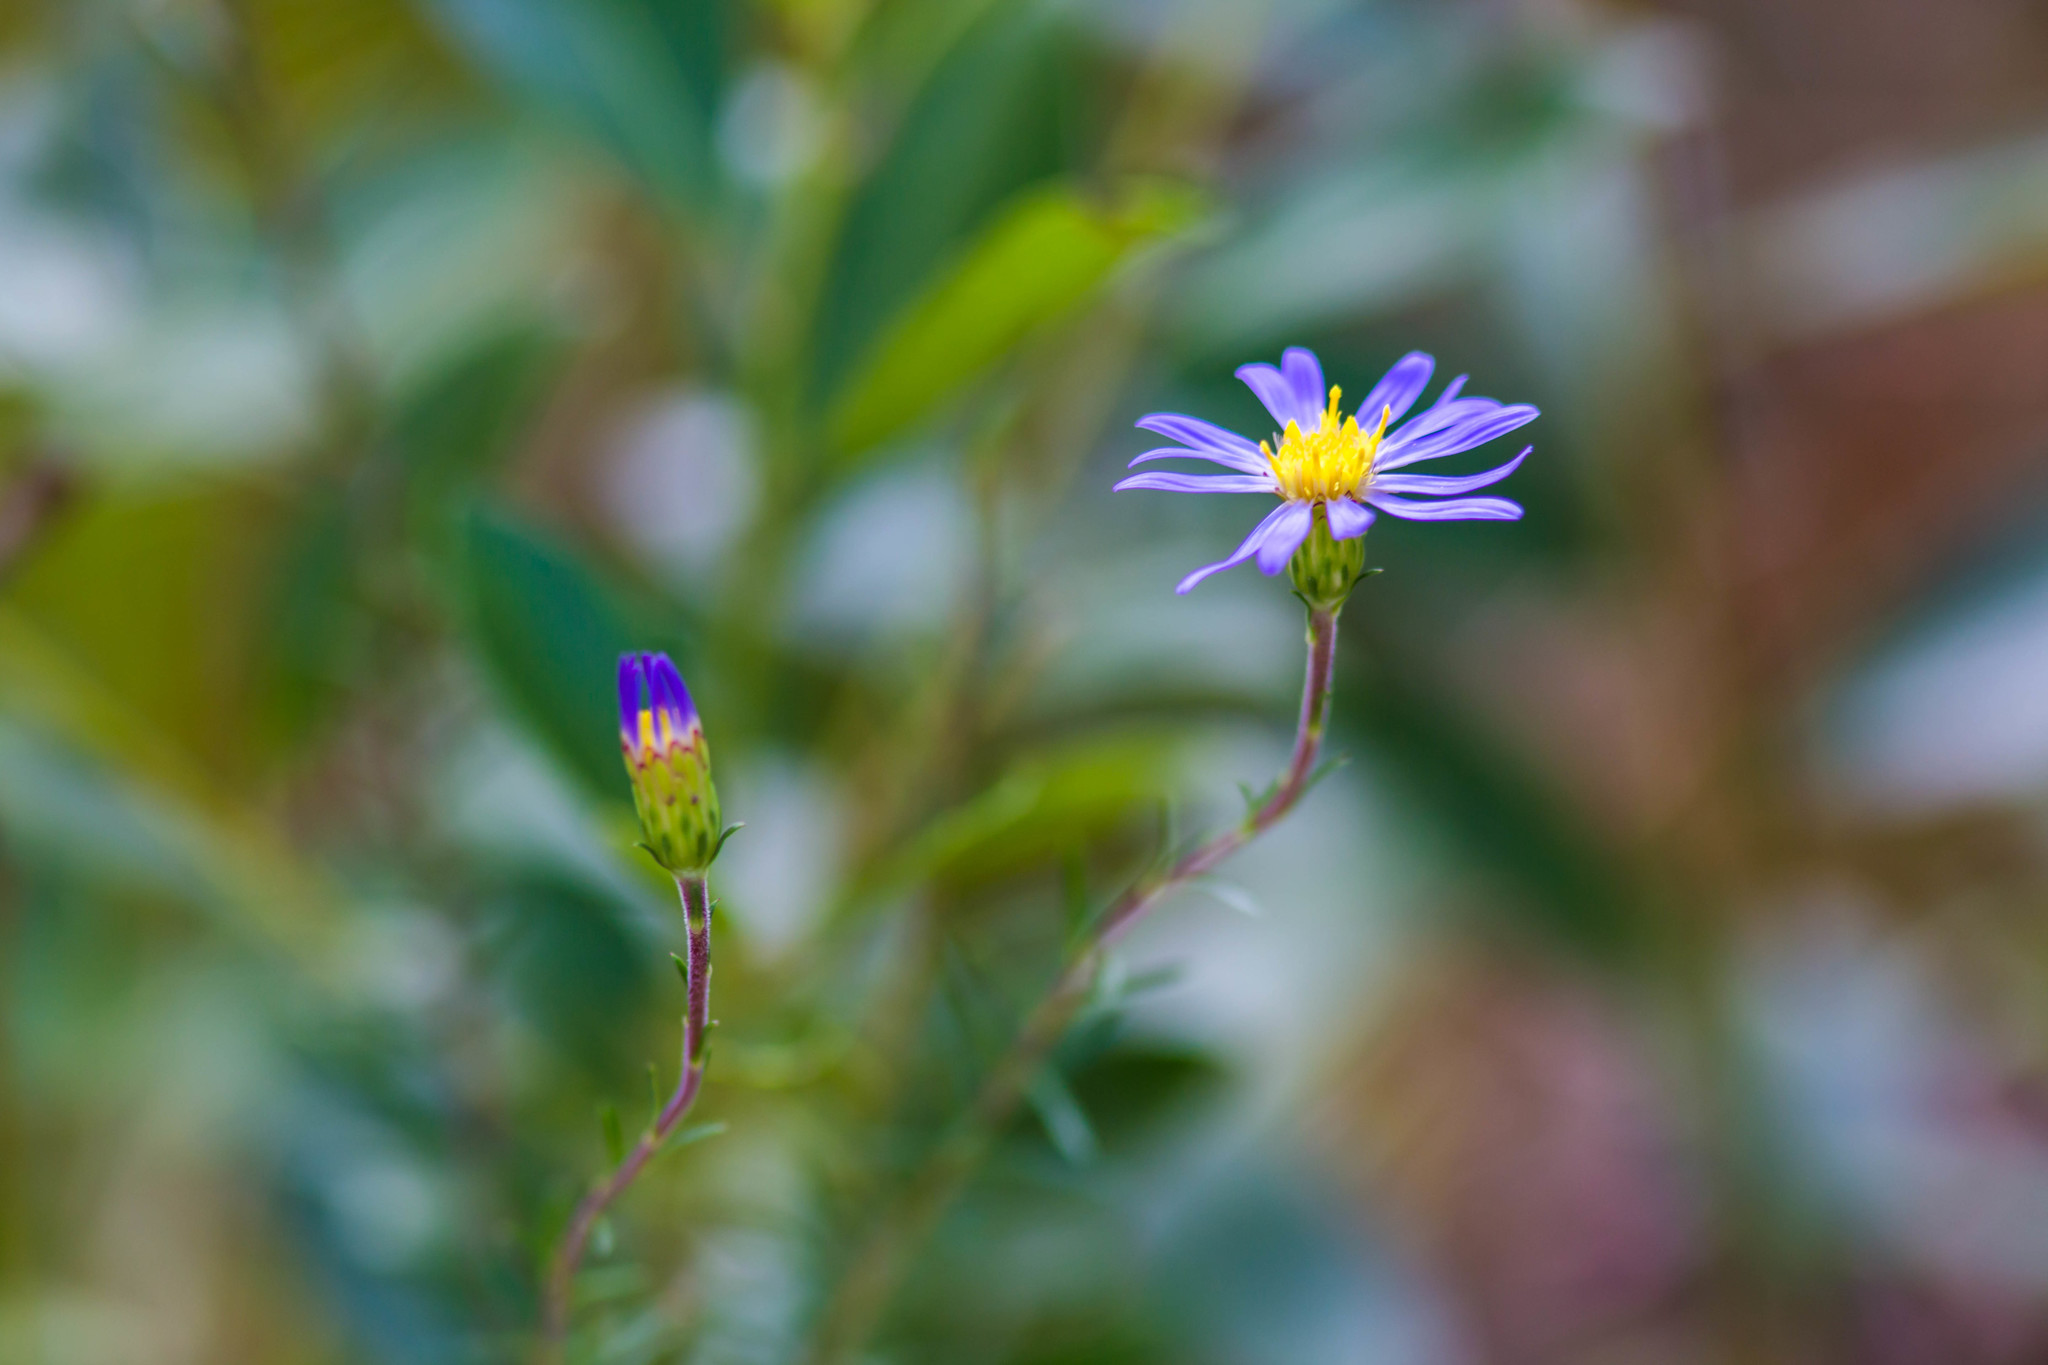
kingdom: Plantae
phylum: Tracheophyta
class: Magnoliopsida
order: Asterales
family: Asteraceae
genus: Ionactis
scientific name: Ionactis repens
